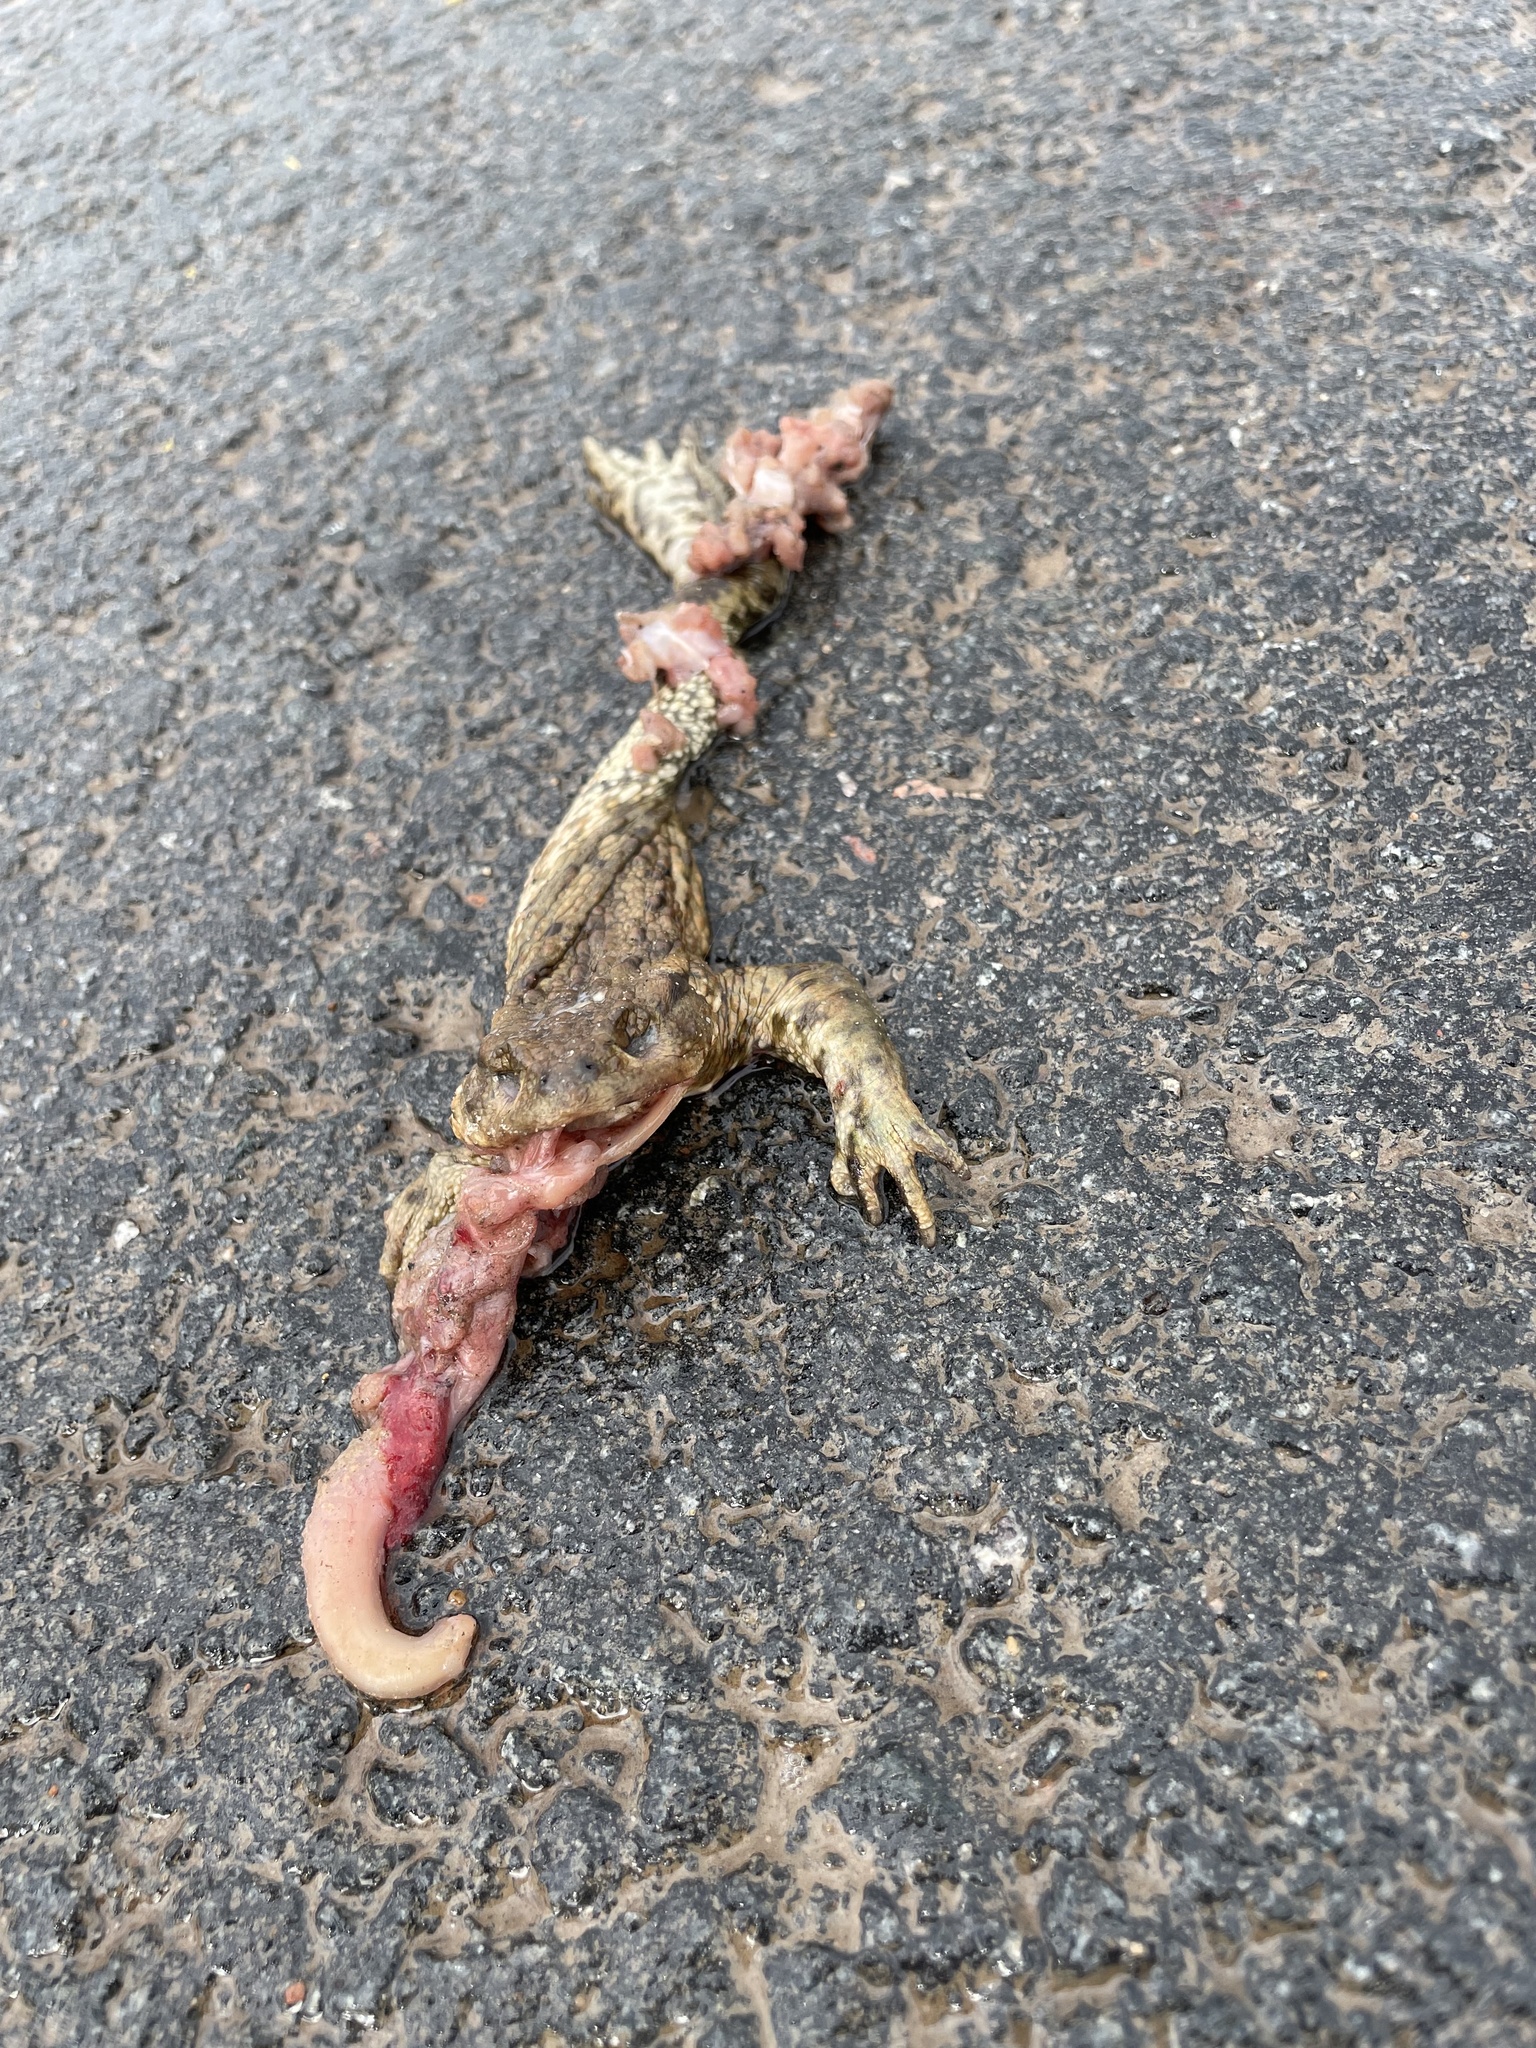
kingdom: Animalia
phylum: Chordata
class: Amphibia
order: Anura
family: Bufonidae
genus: Bufo
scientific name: Bufo bufo
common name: Common toad
